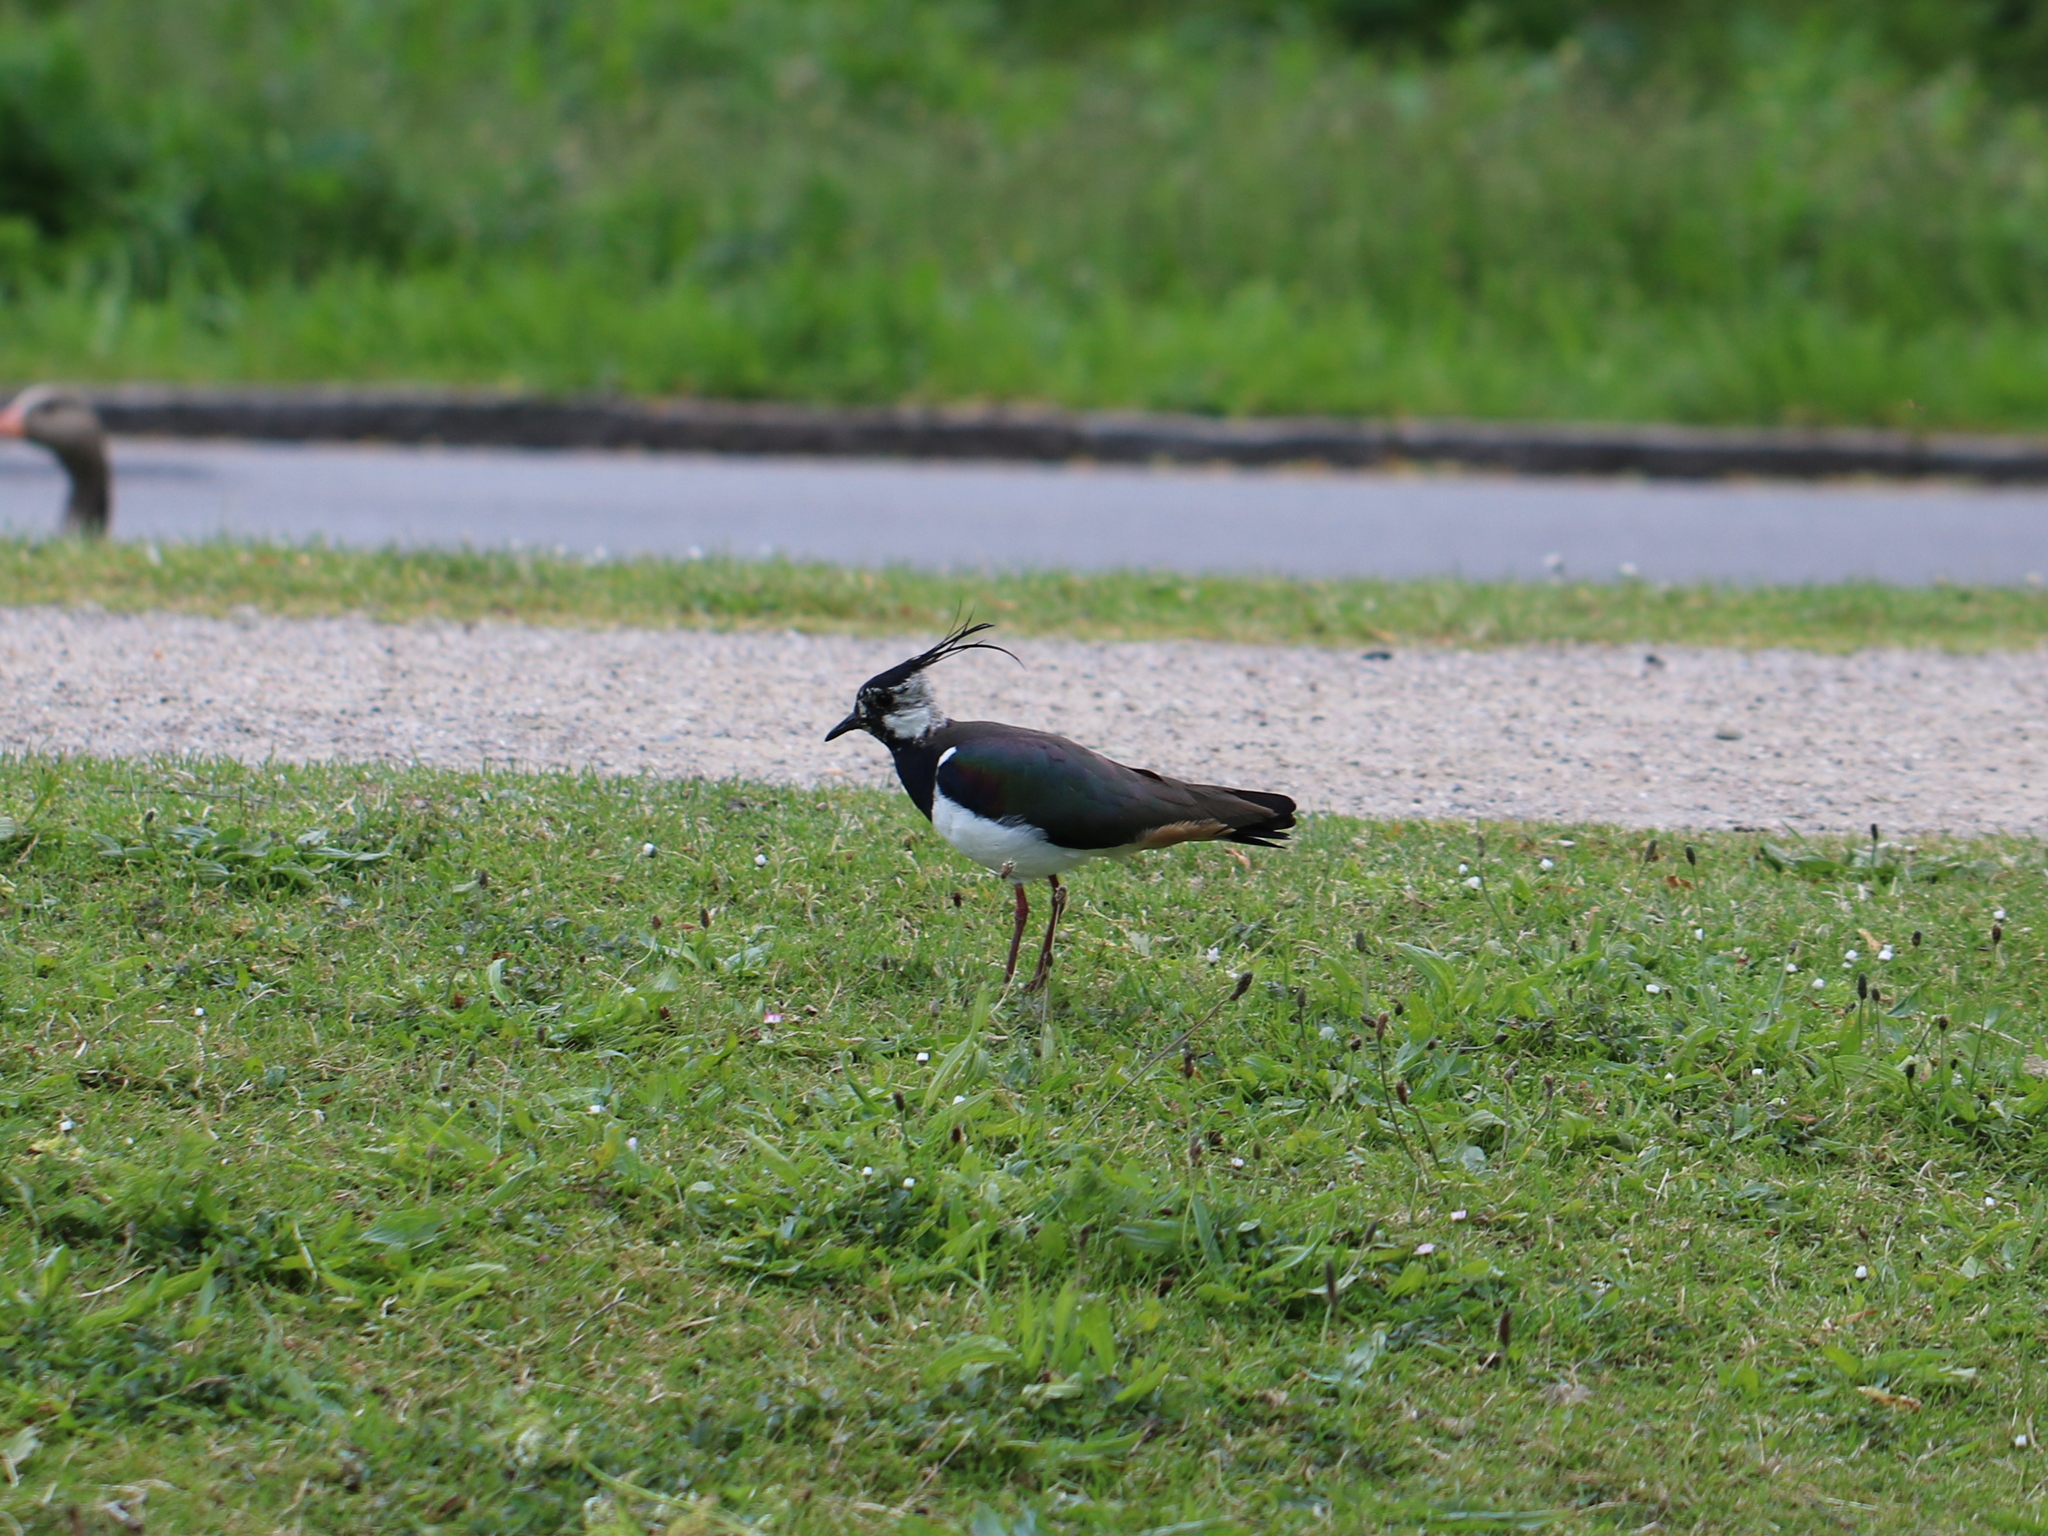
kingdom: Animalia
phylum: Chordata
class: Aves
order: Charadriiformes
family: Charadriidae
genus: Vanellus
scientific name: Vanellus vanellus
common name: Northern lapwing
